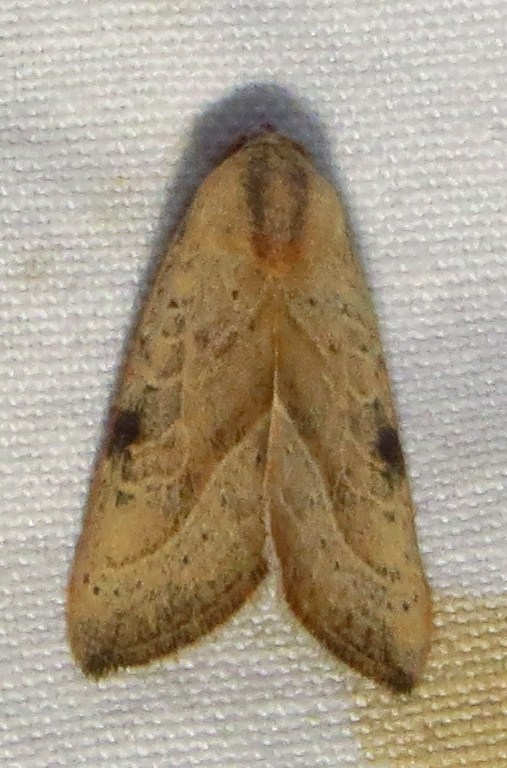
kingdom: Animalia
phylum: Arthropoda
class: Insecta
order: Lepidoptera
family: Noctuidae
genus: Galgula
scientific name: Galgula partita
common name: Wedgeling
